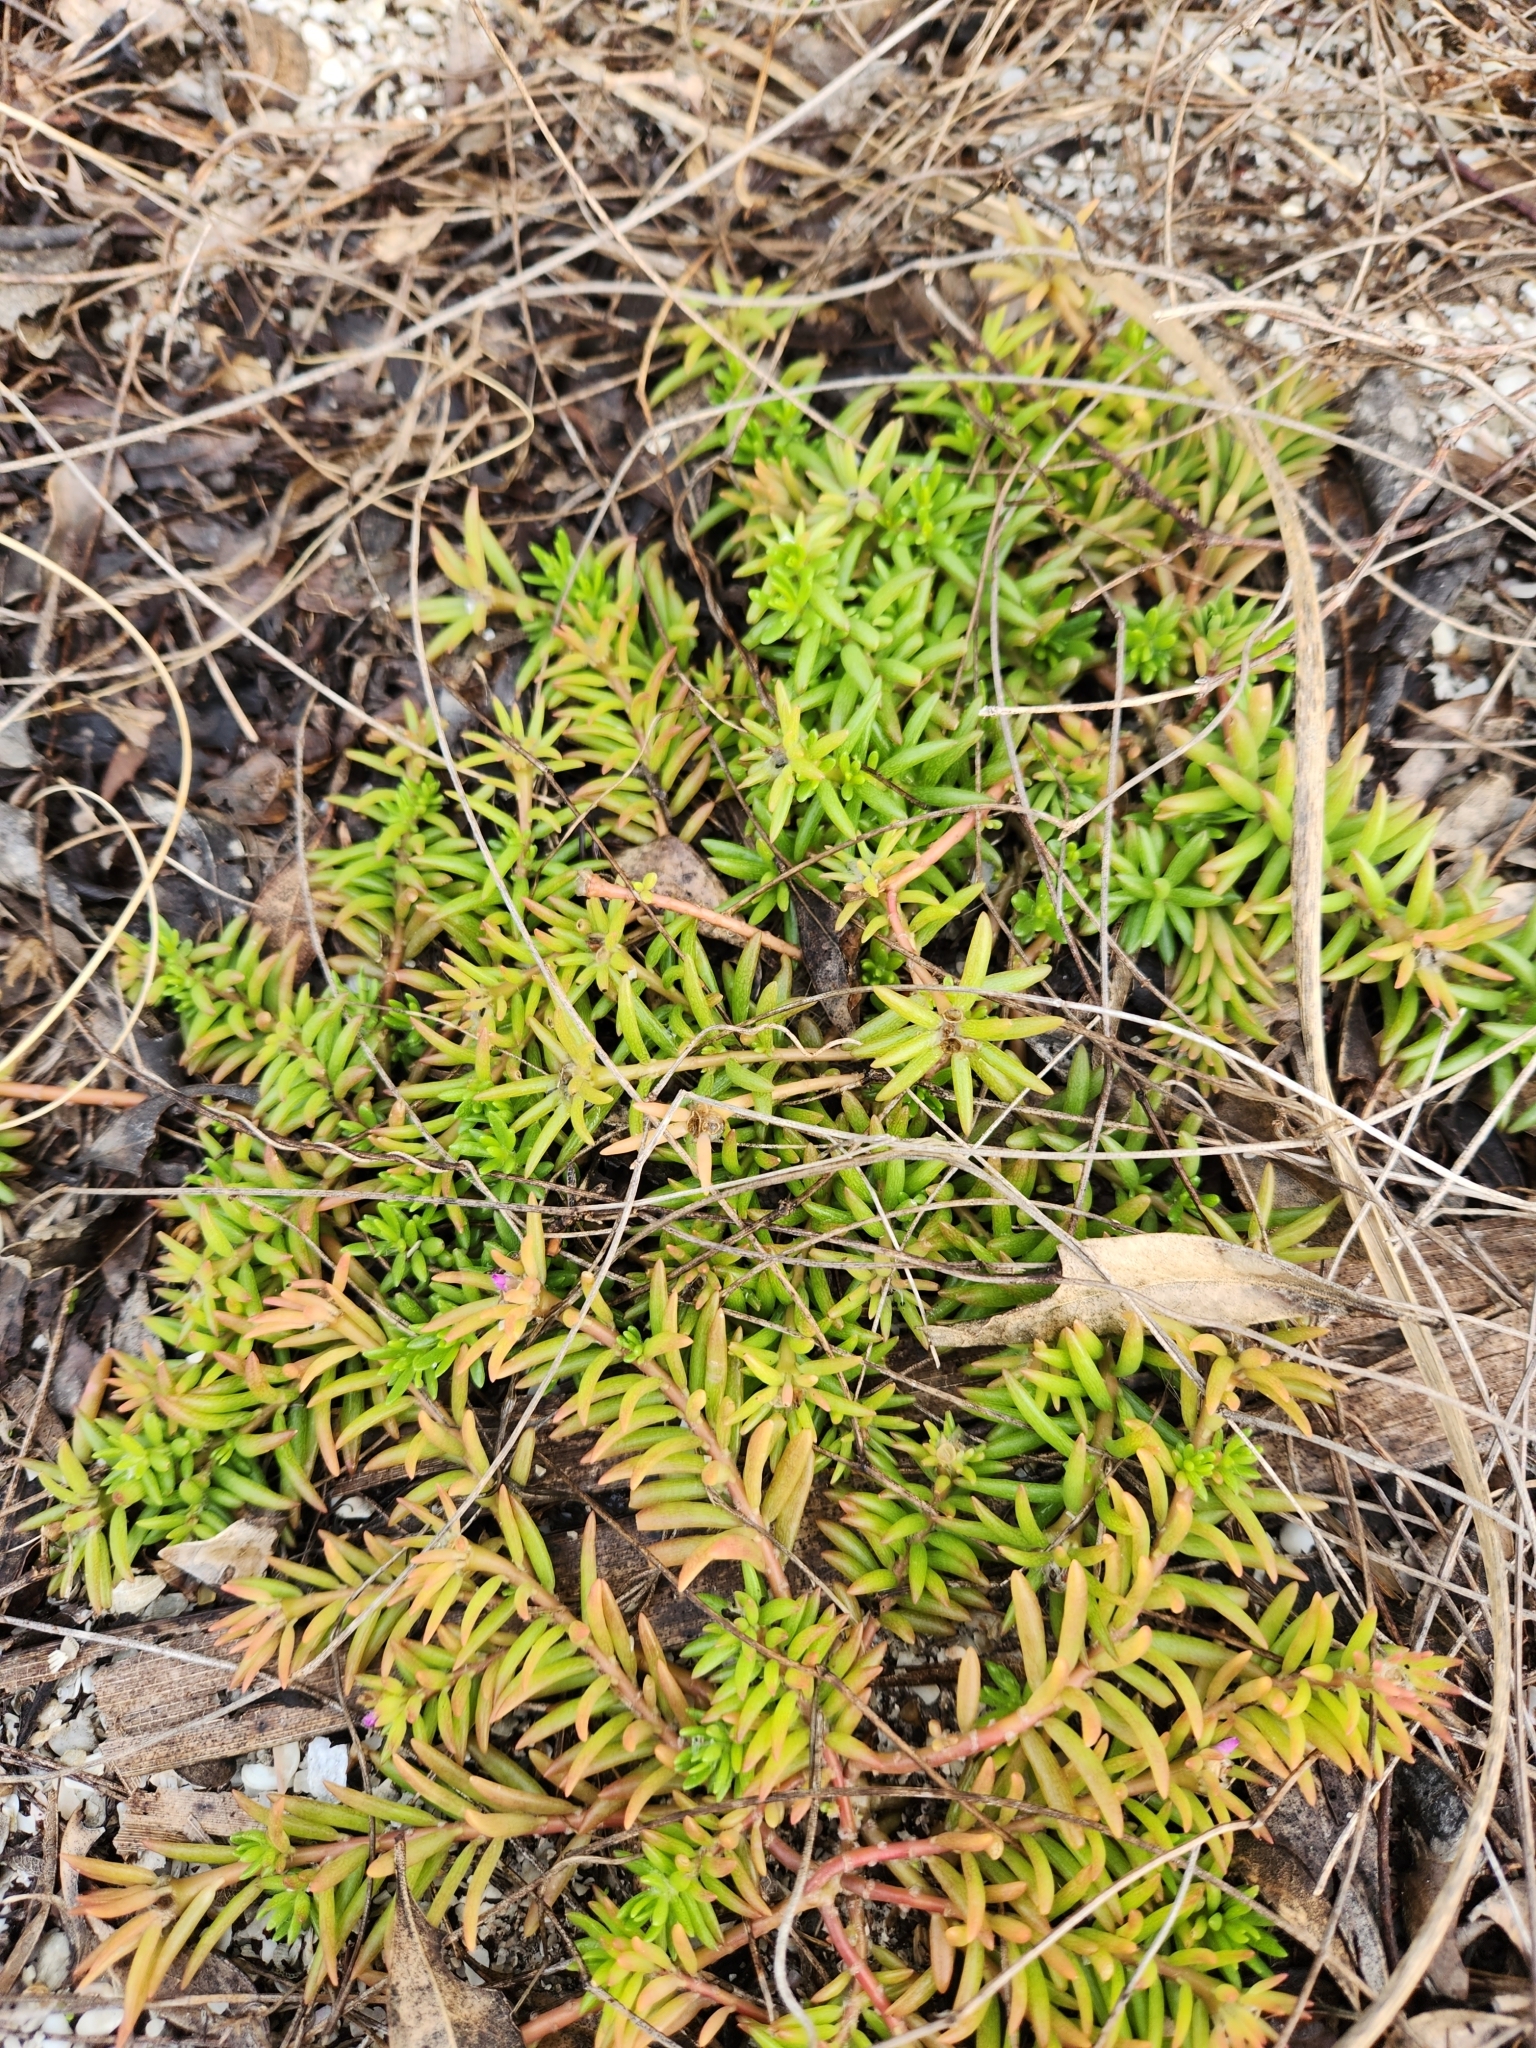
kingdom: Plantae
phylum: Tracheophyta
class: Magnoliopsida
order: Caryophyllales
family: Portulacaceae
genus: Portulaca
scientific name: Portulaca pilosa
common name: Kiss me quick
